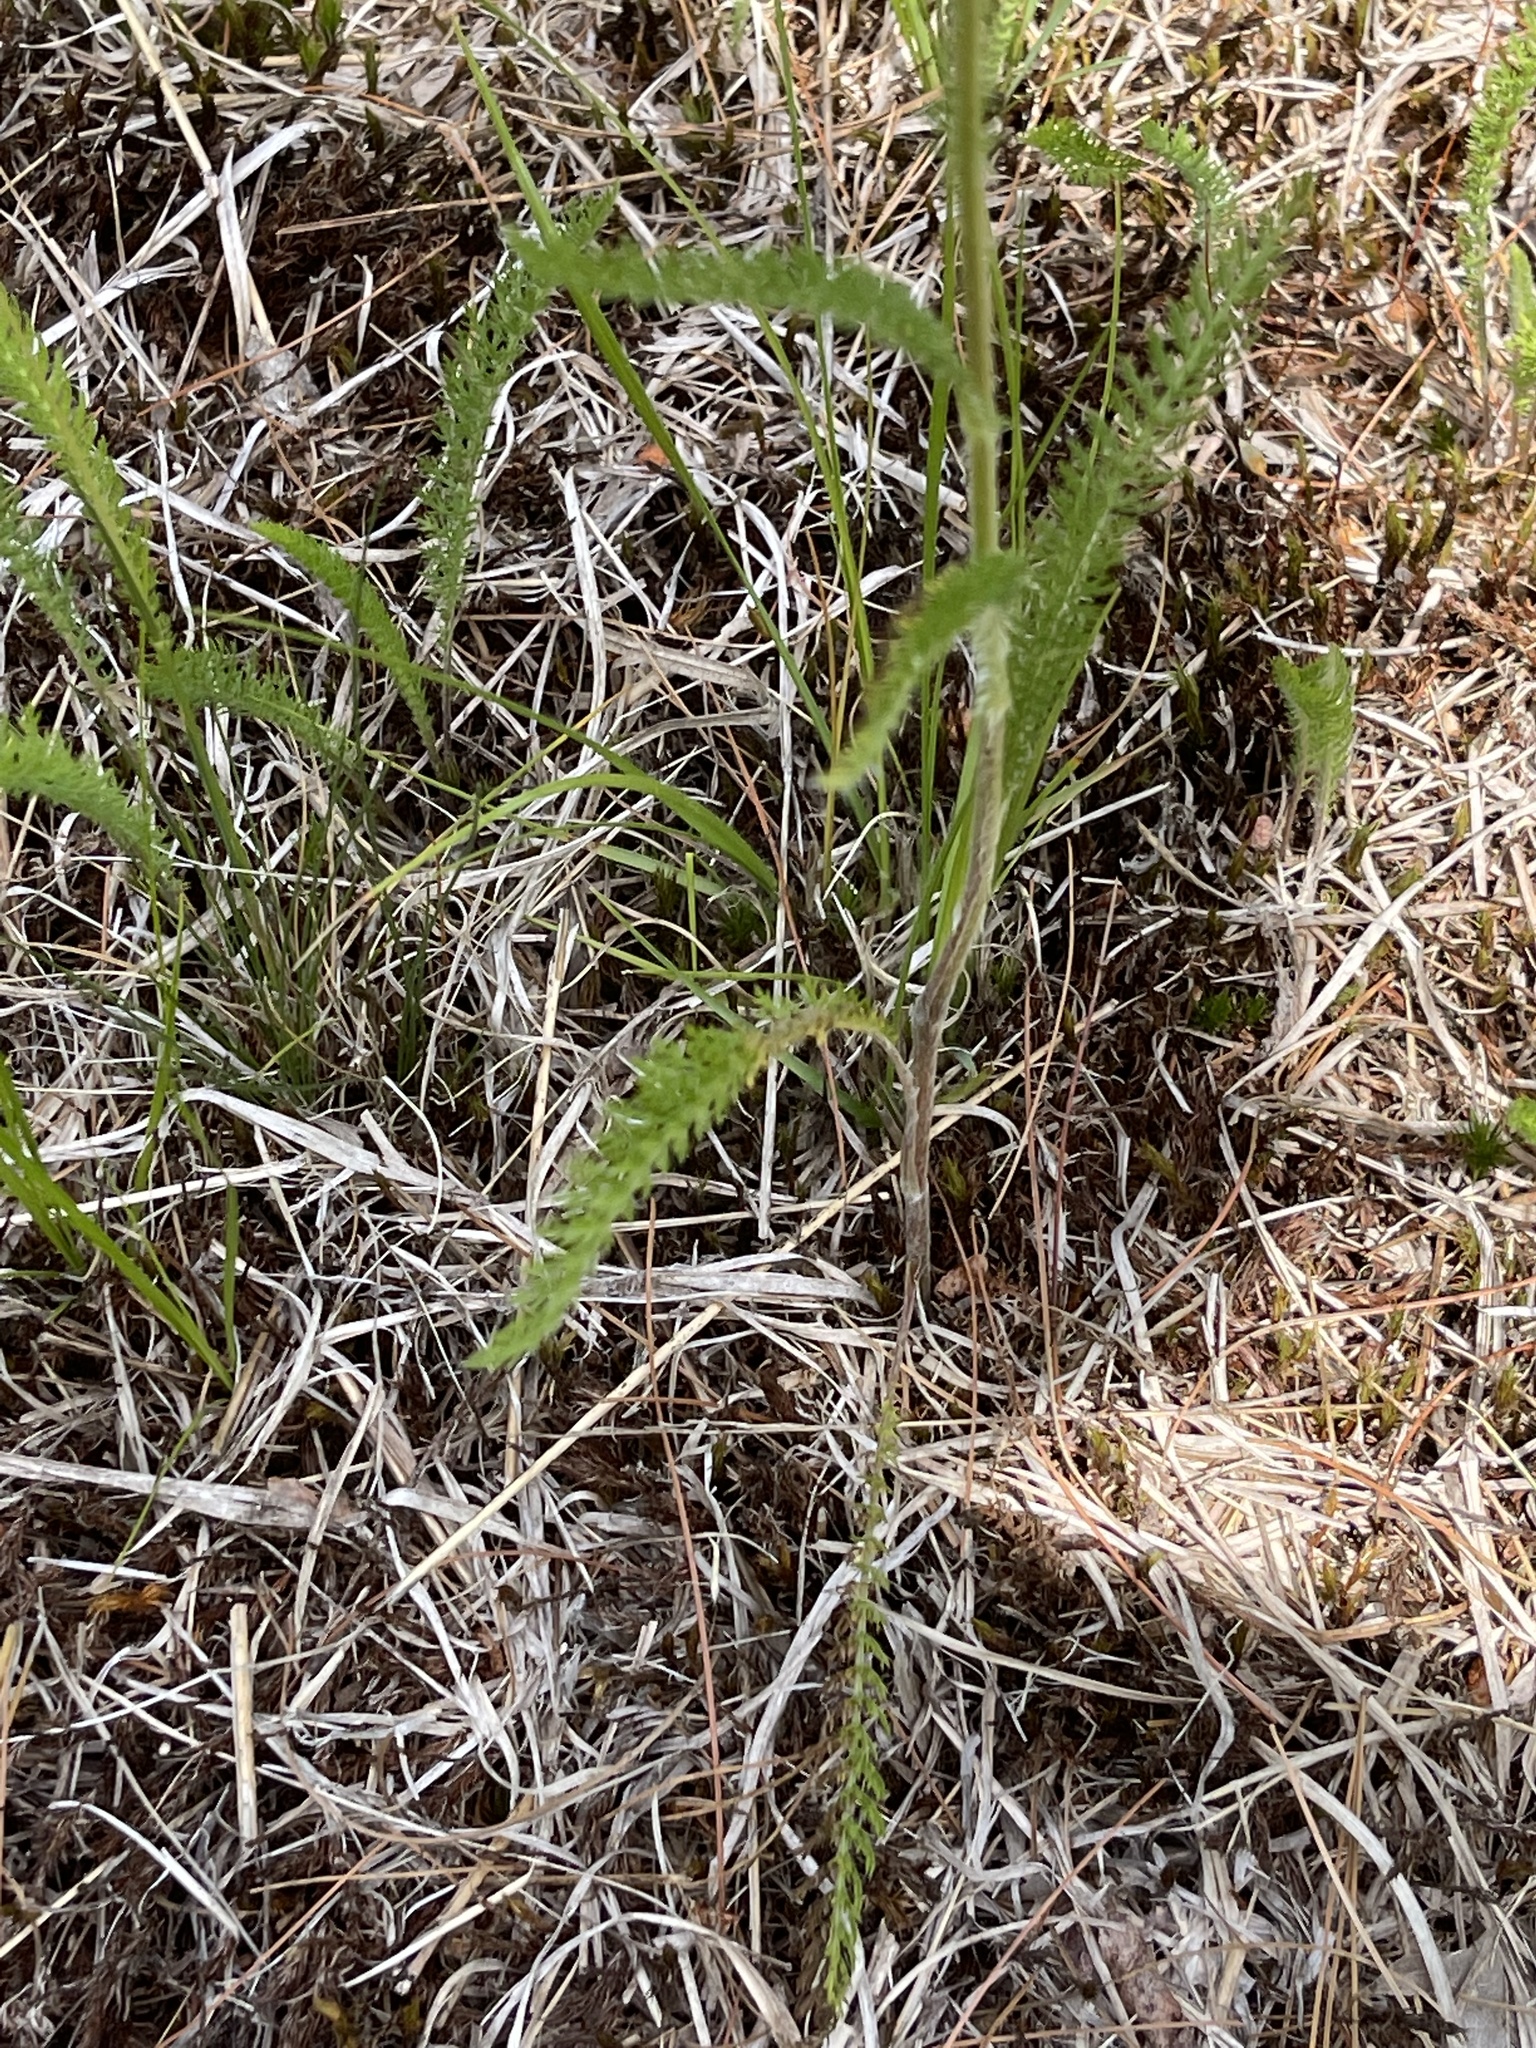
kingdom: Plantae
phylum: Tracheophyta
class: Magnoliopsida
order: Asterales
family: Asteraceae
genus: Achillea
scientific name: Achillea millefolium
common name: Yarrow
